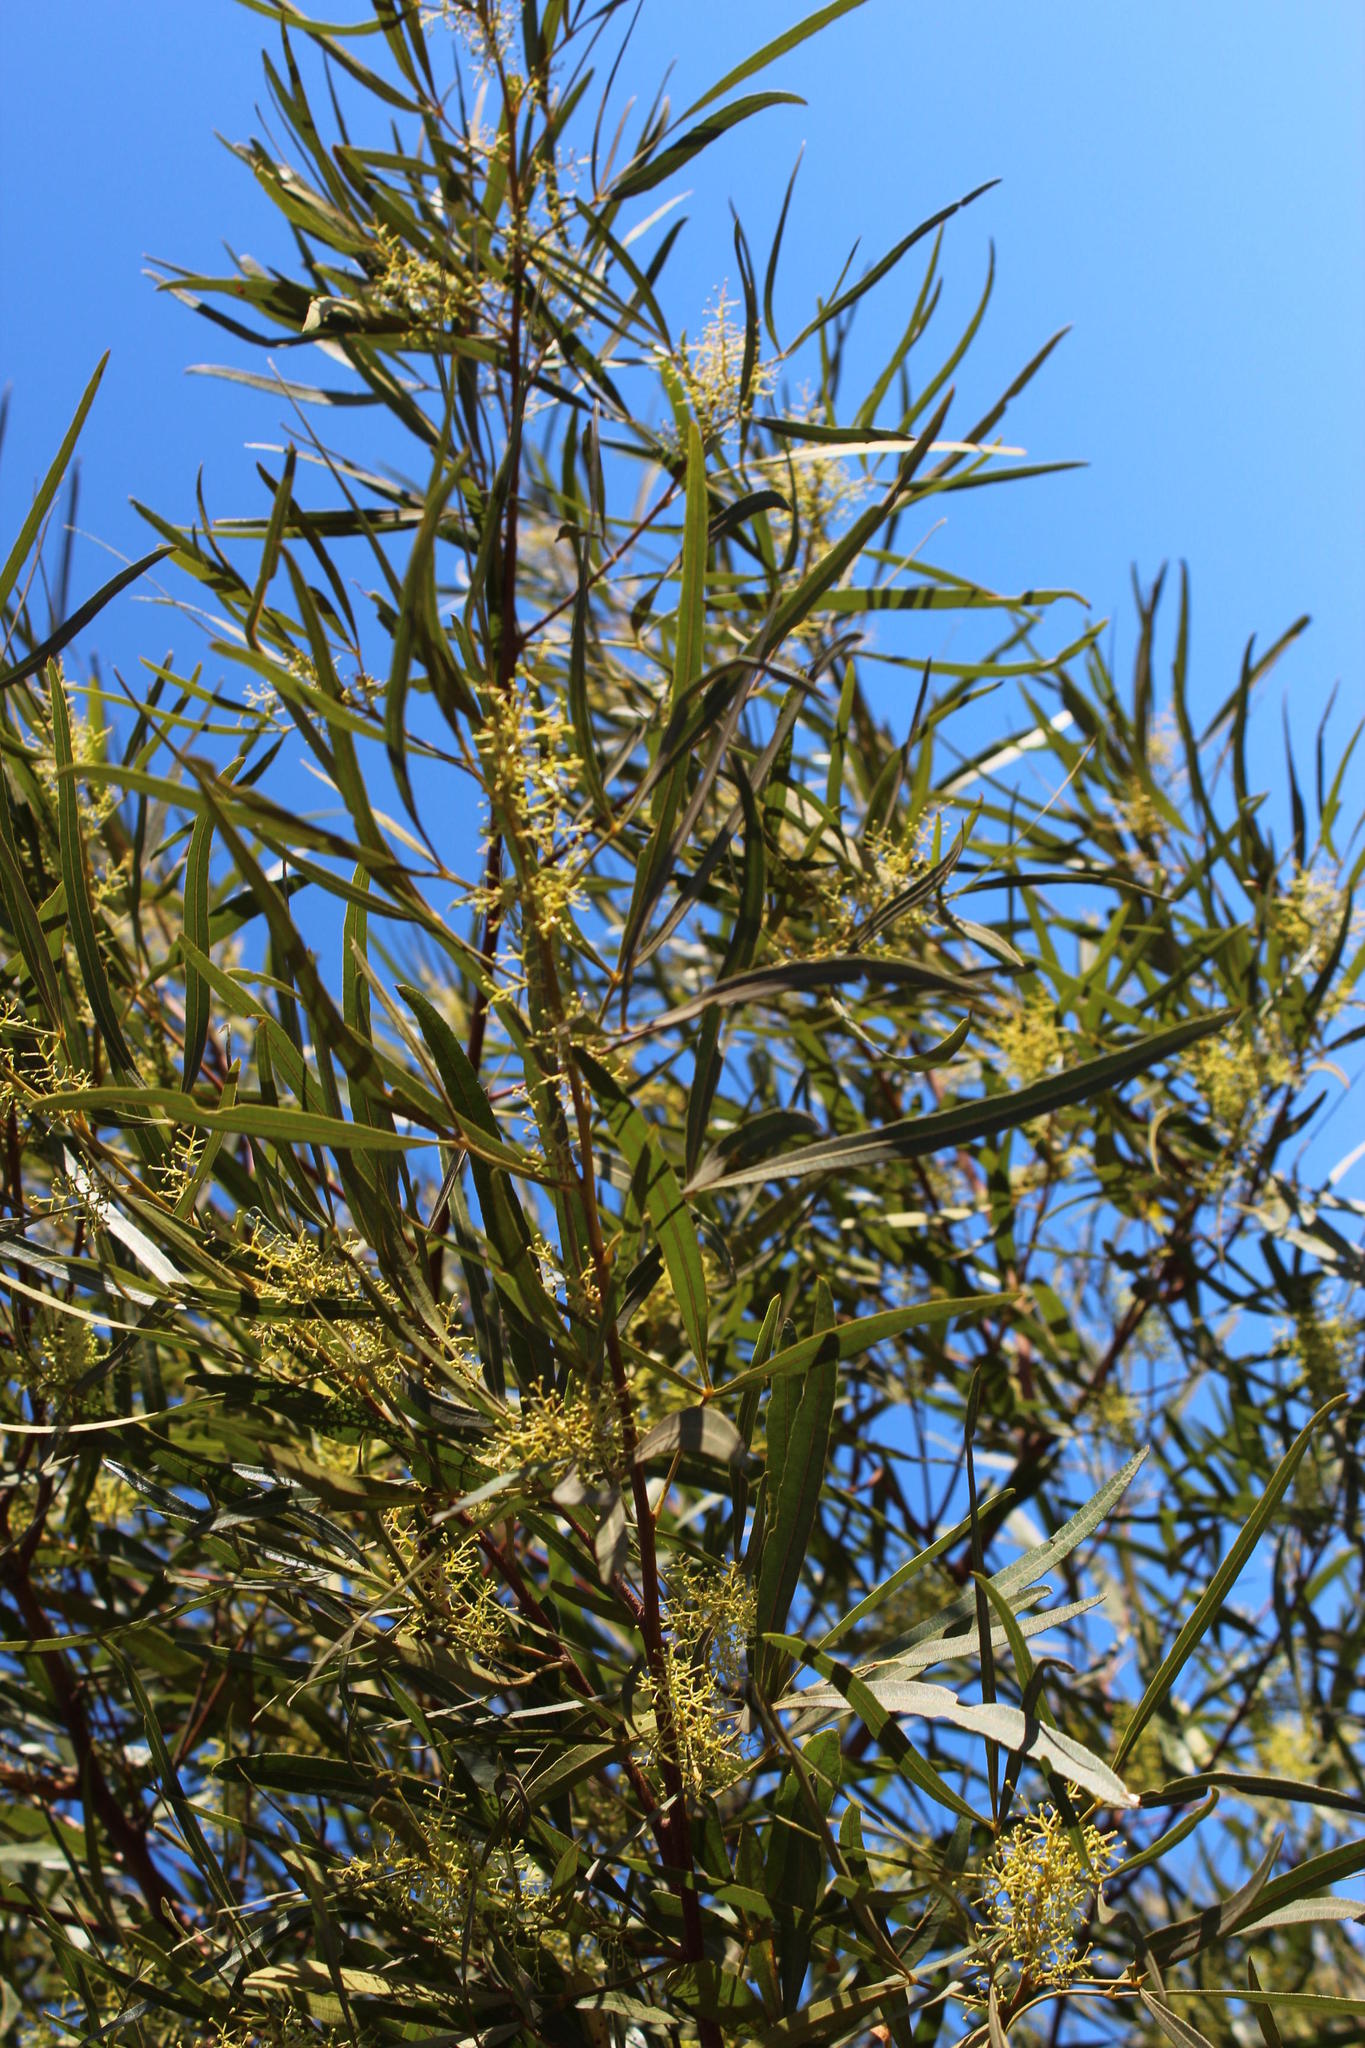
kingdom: Plantae
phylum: Tracheophyta
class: Magnoliopsida
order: Sapindales
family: Anacardiaceae
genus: Searsia
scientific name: Searsia lancea
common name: Cashew
